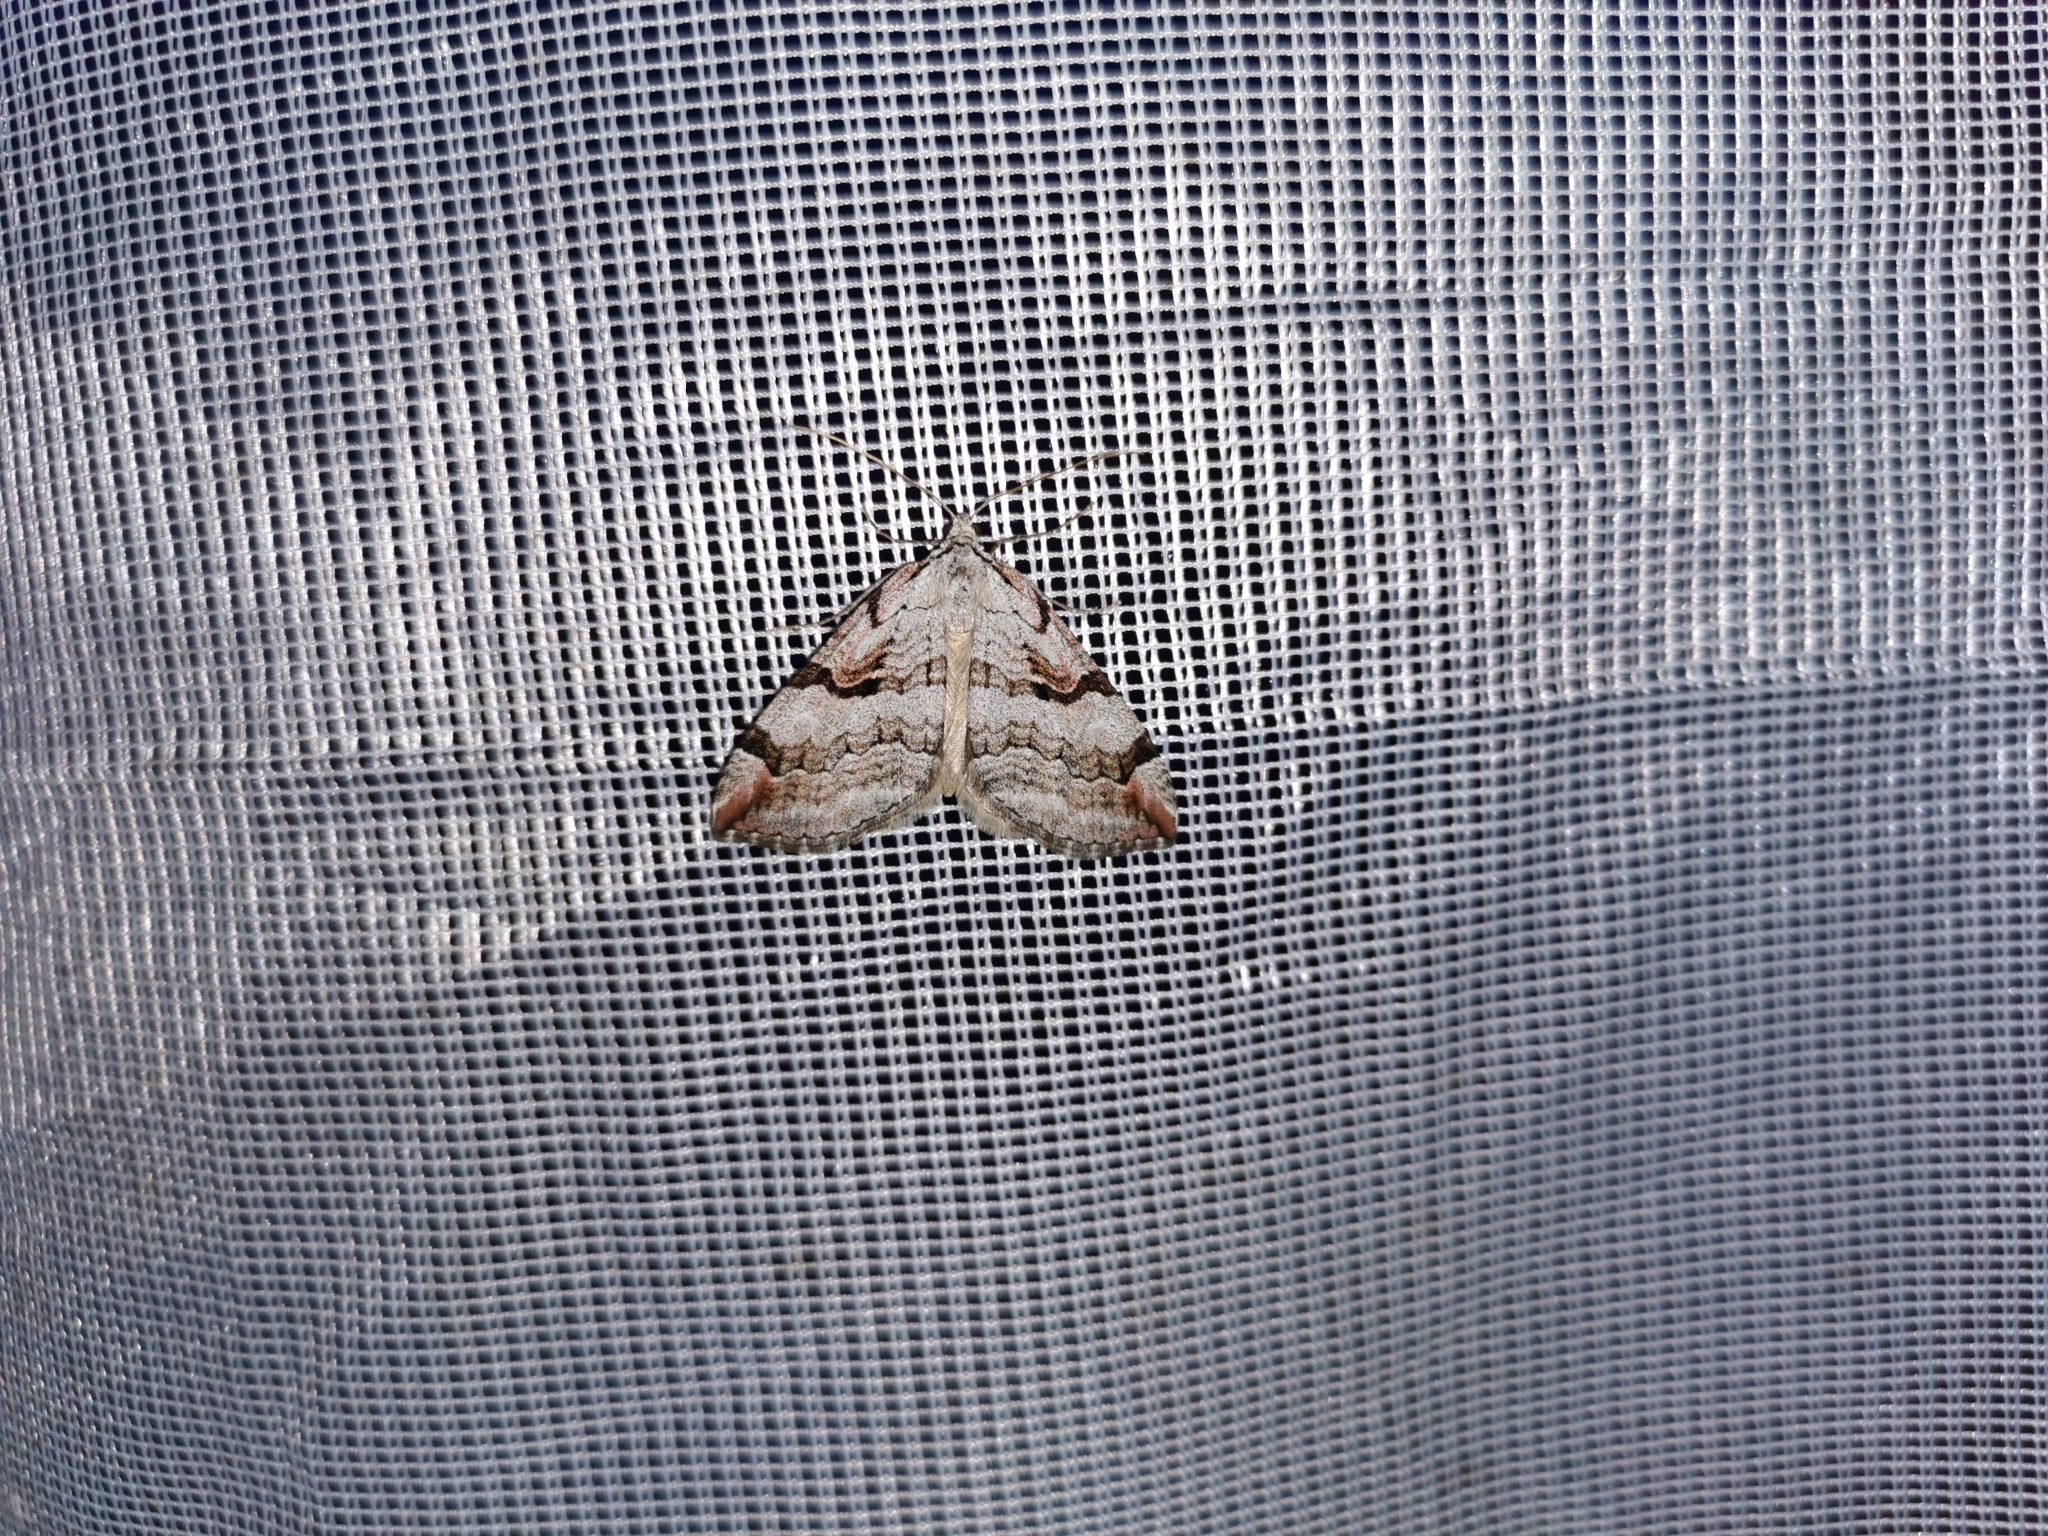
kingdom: Animalia
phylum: Arthropoda
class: Insecta
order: Lepidoptera
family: Geometridae
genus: Aplocera
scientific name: Aplocera praeformata
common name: Purple treble-bar
